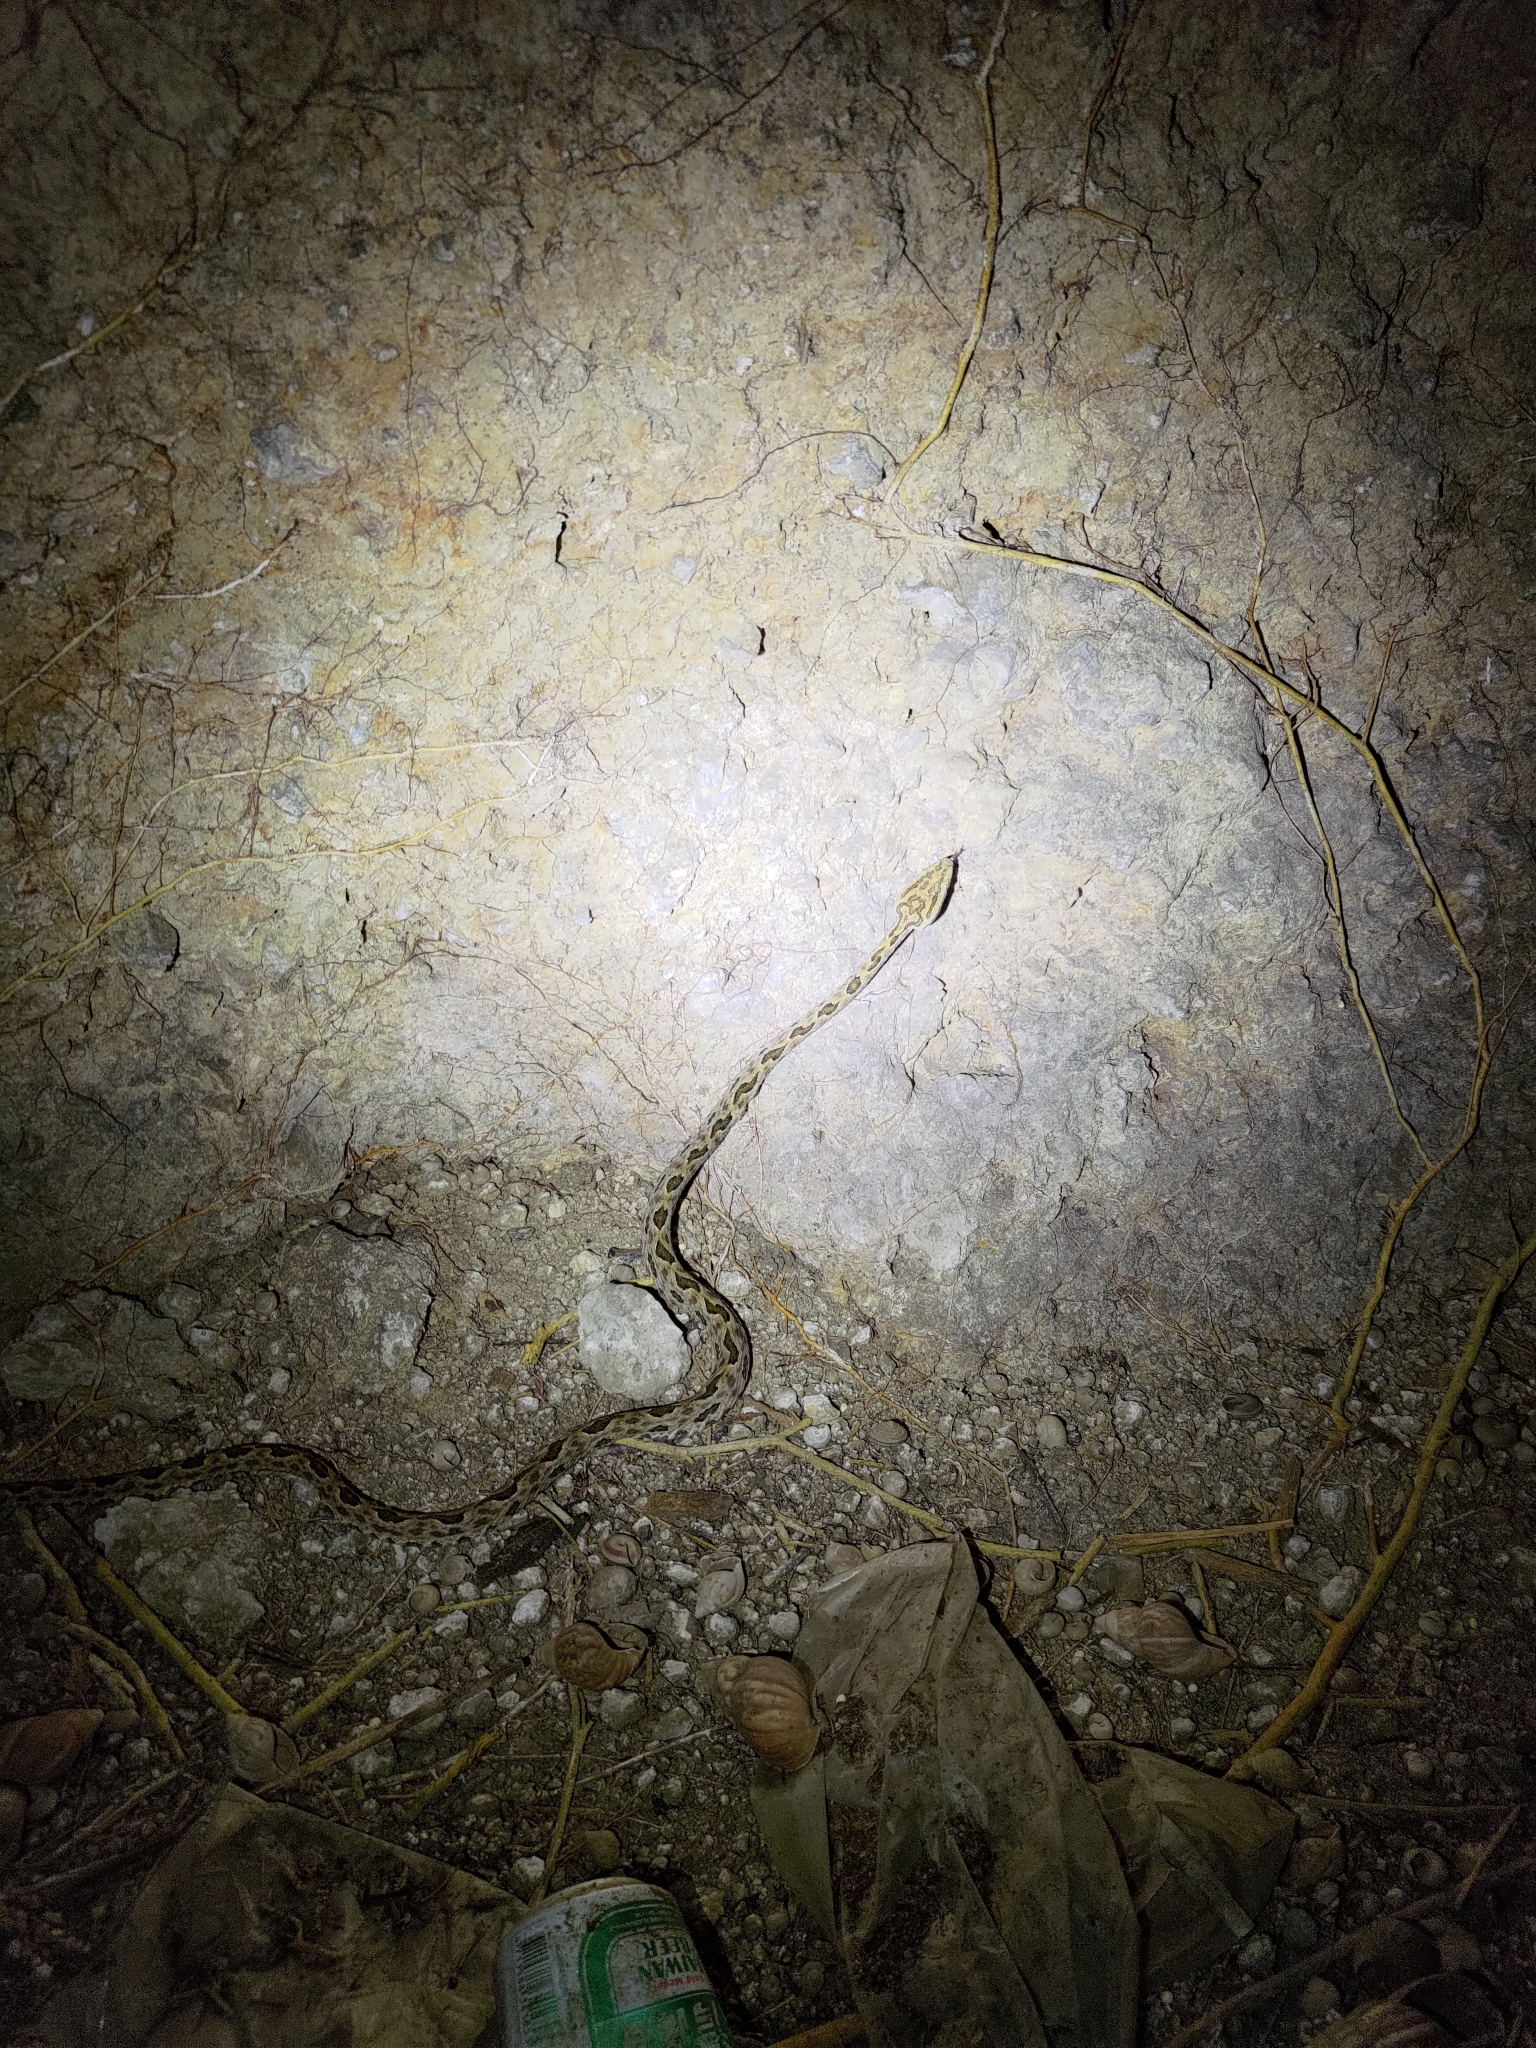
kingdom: Animalia
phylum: Chordata
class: Squamata
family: Viperidae
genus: Protobothrops
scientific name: Protobothrops mucrosquamatus
